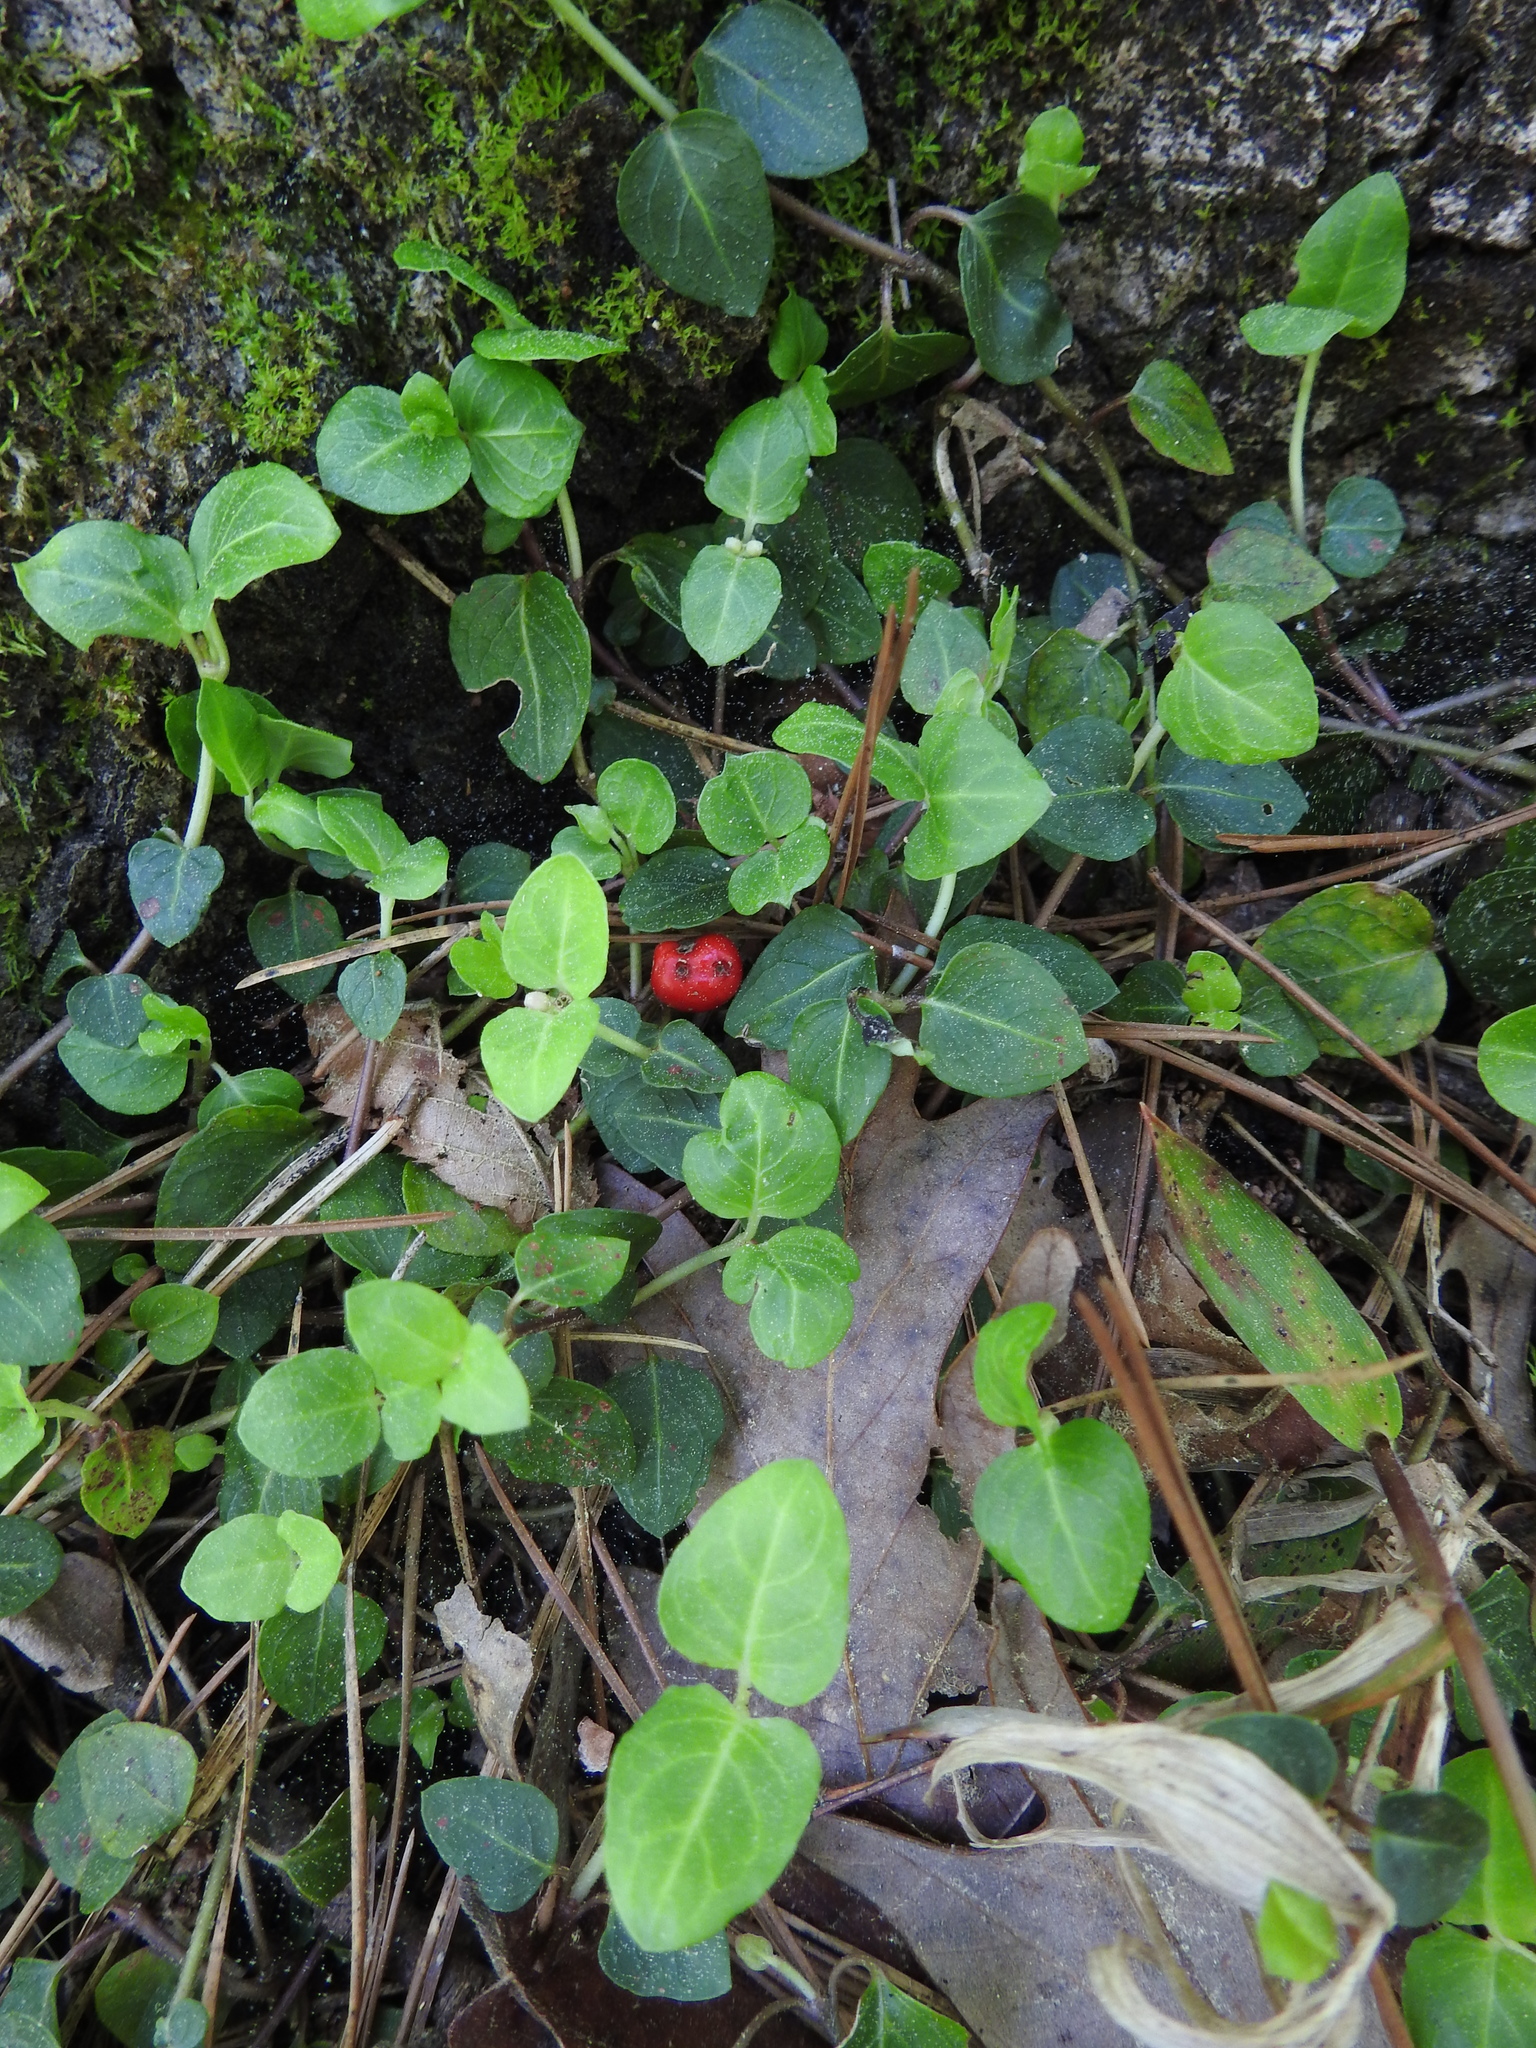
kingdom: Plantae
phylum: Tracheophyta
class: Magnoliopsida
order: Gentianales
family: Rubiaceae
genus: Mitchella
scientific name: Mitchella repens
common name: Partridge-berry
